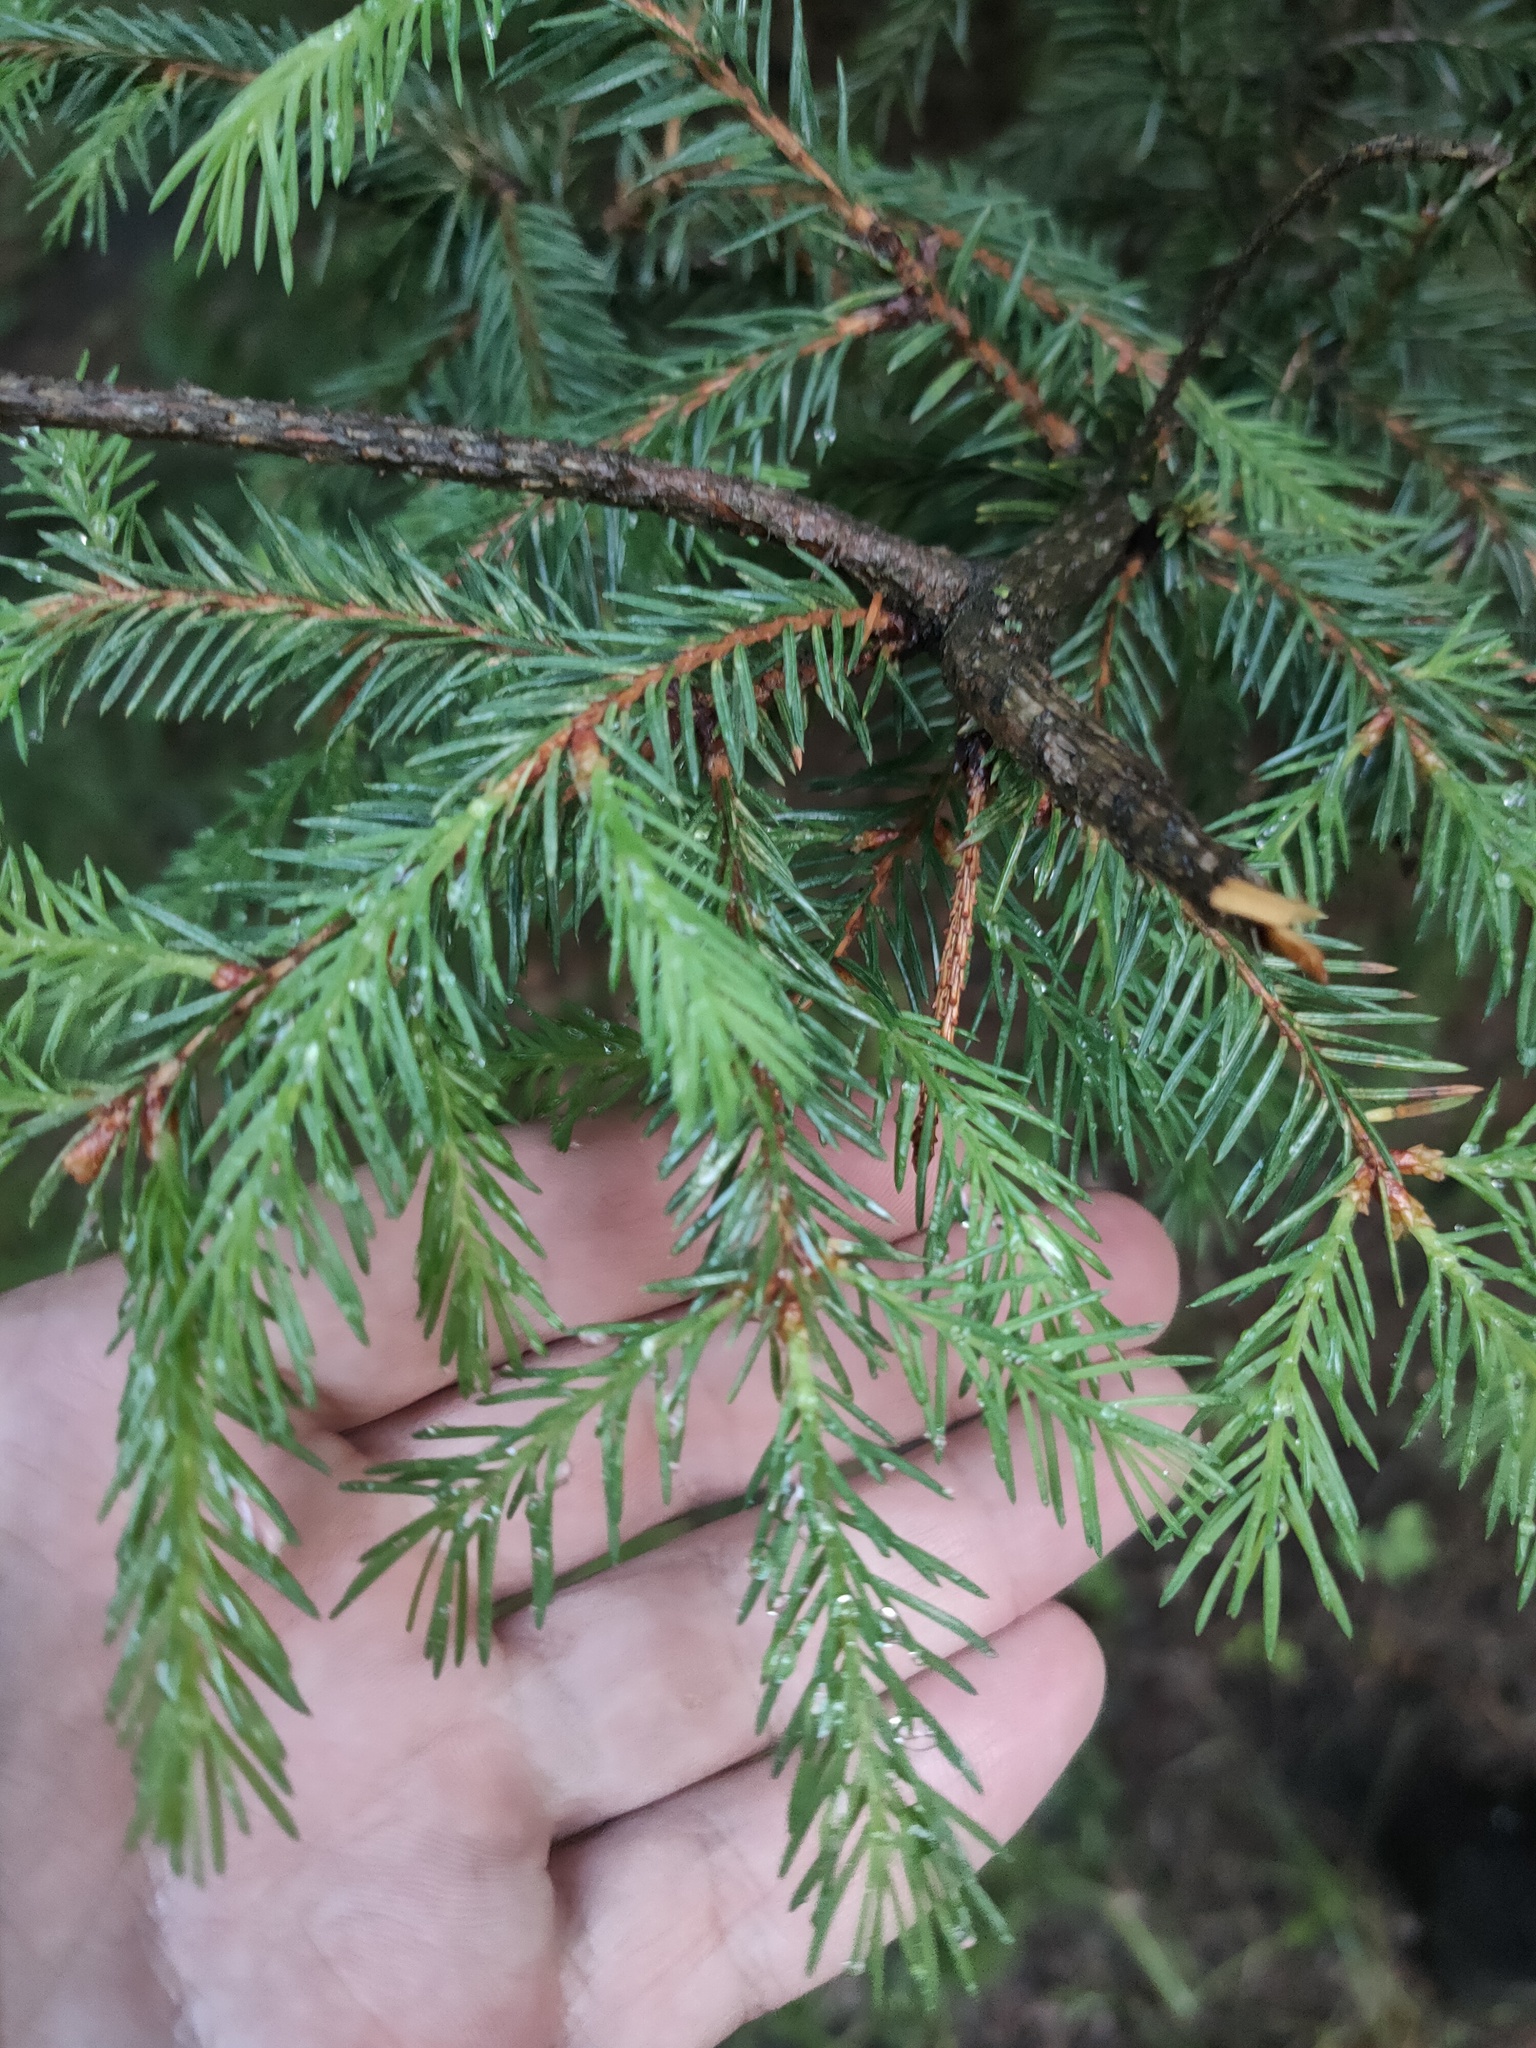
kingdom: Plantae
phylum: Tracheophyta
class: Pinopsida
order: Pinales
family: Pinaceae
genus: Picea
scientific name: Picea
